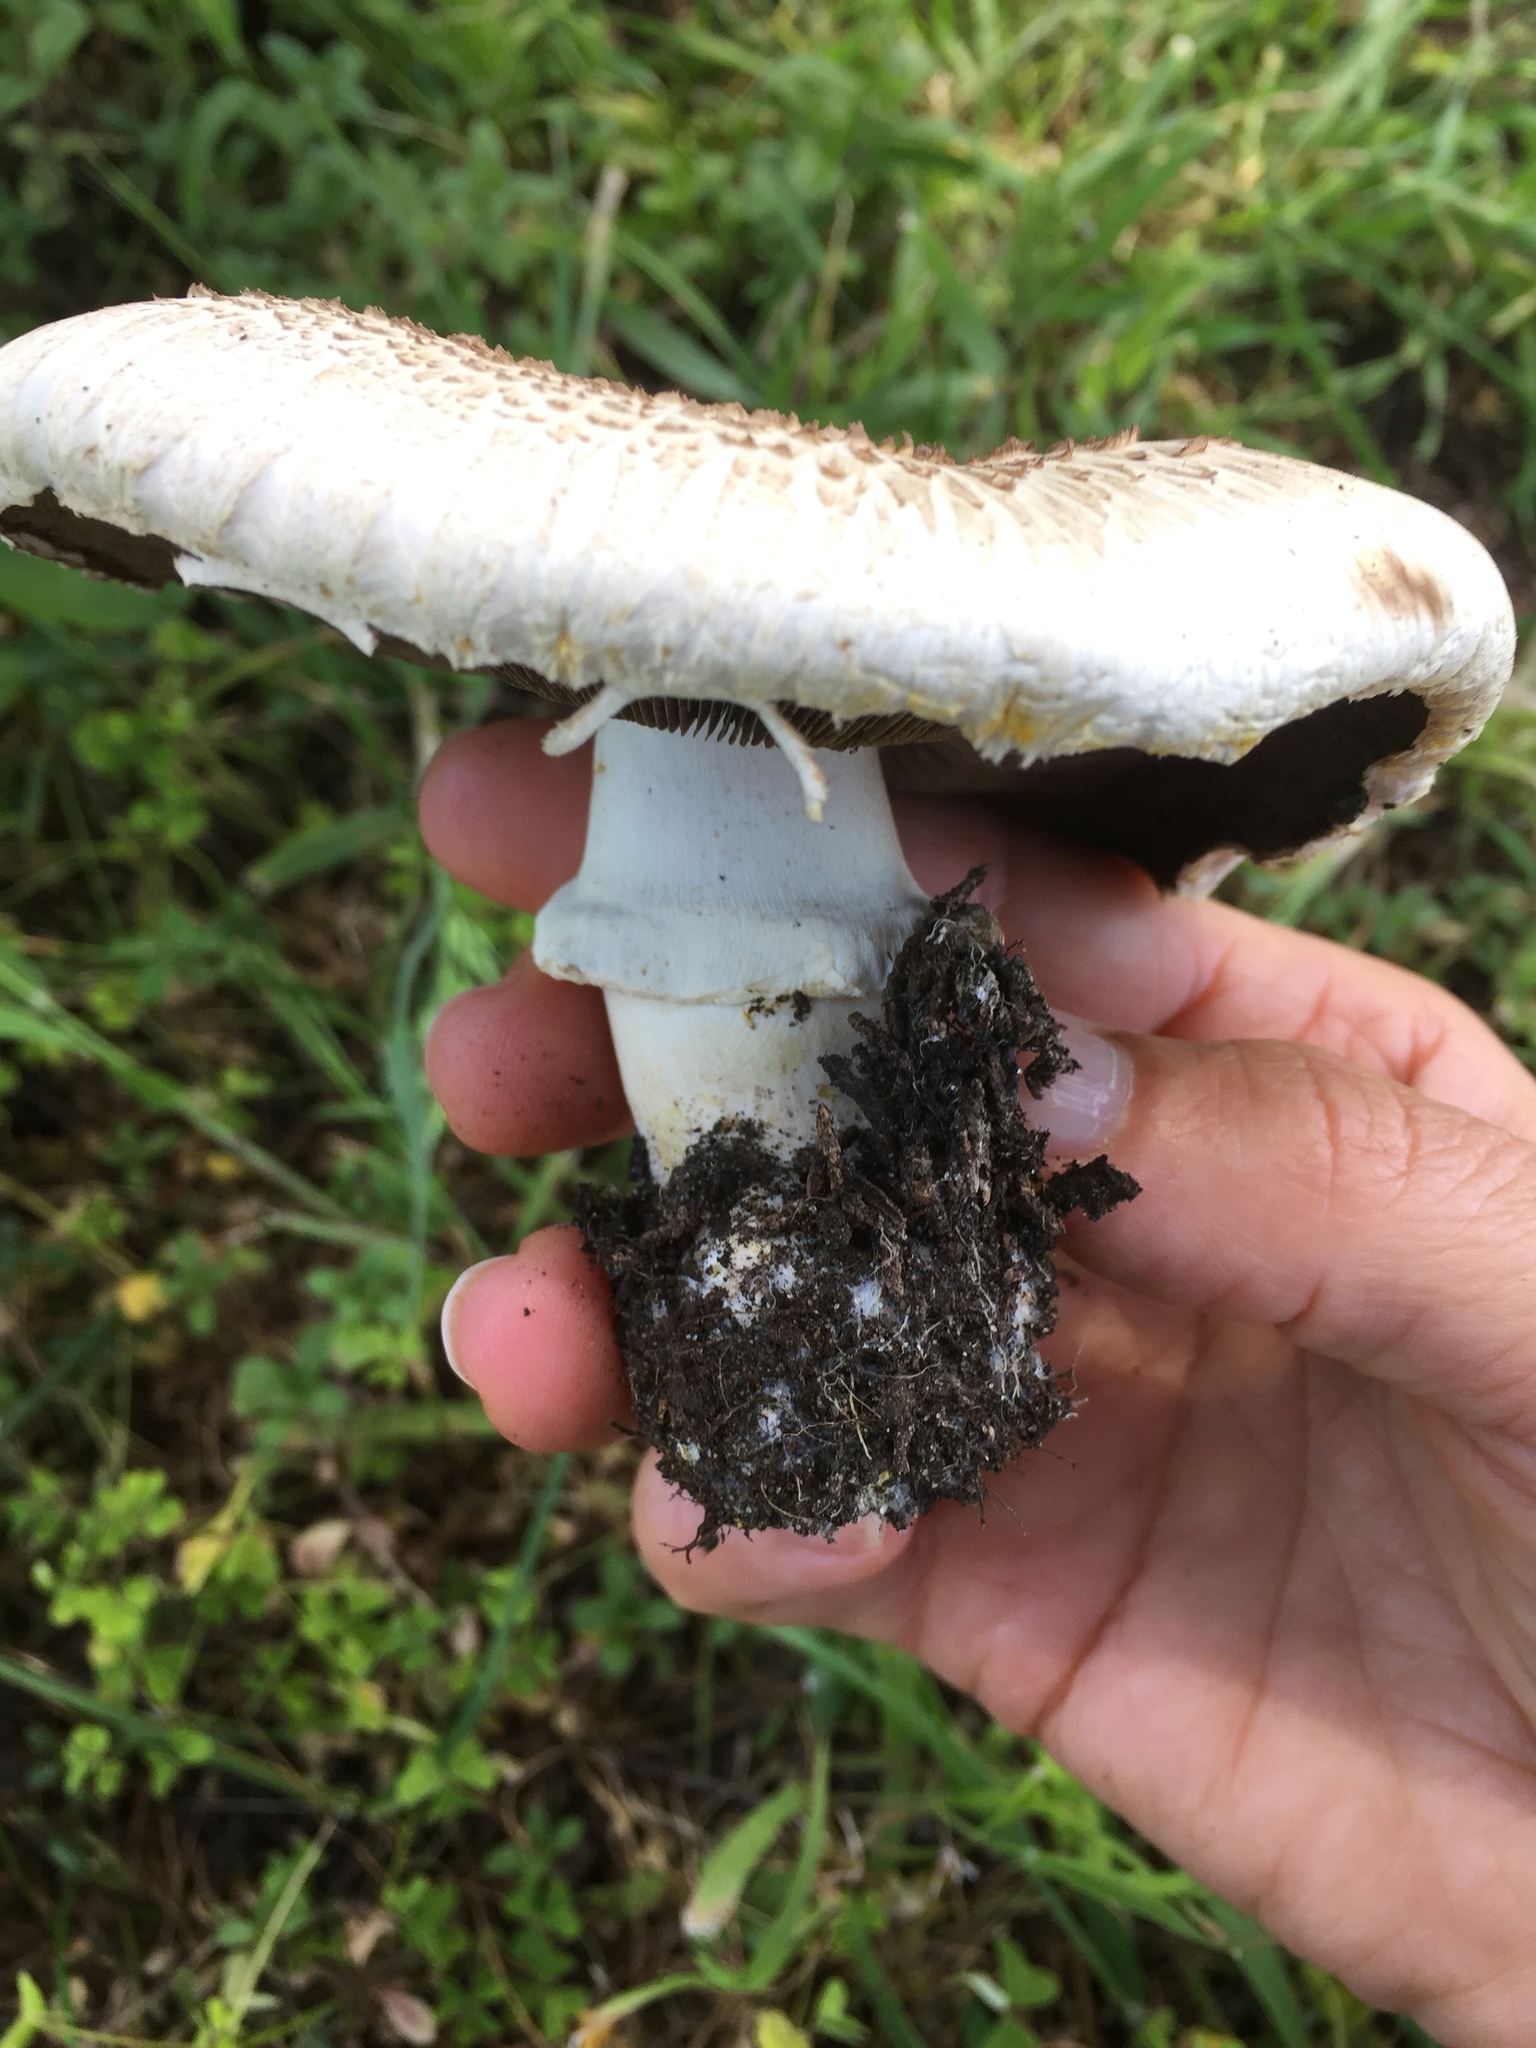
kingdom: Fungi
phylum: Basidiomycota
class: Agaricomycetes
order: Agaricales
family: Agaricaceae
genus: Agaricus
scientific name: Agaricus xanthodermus
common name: Yellow stainer
